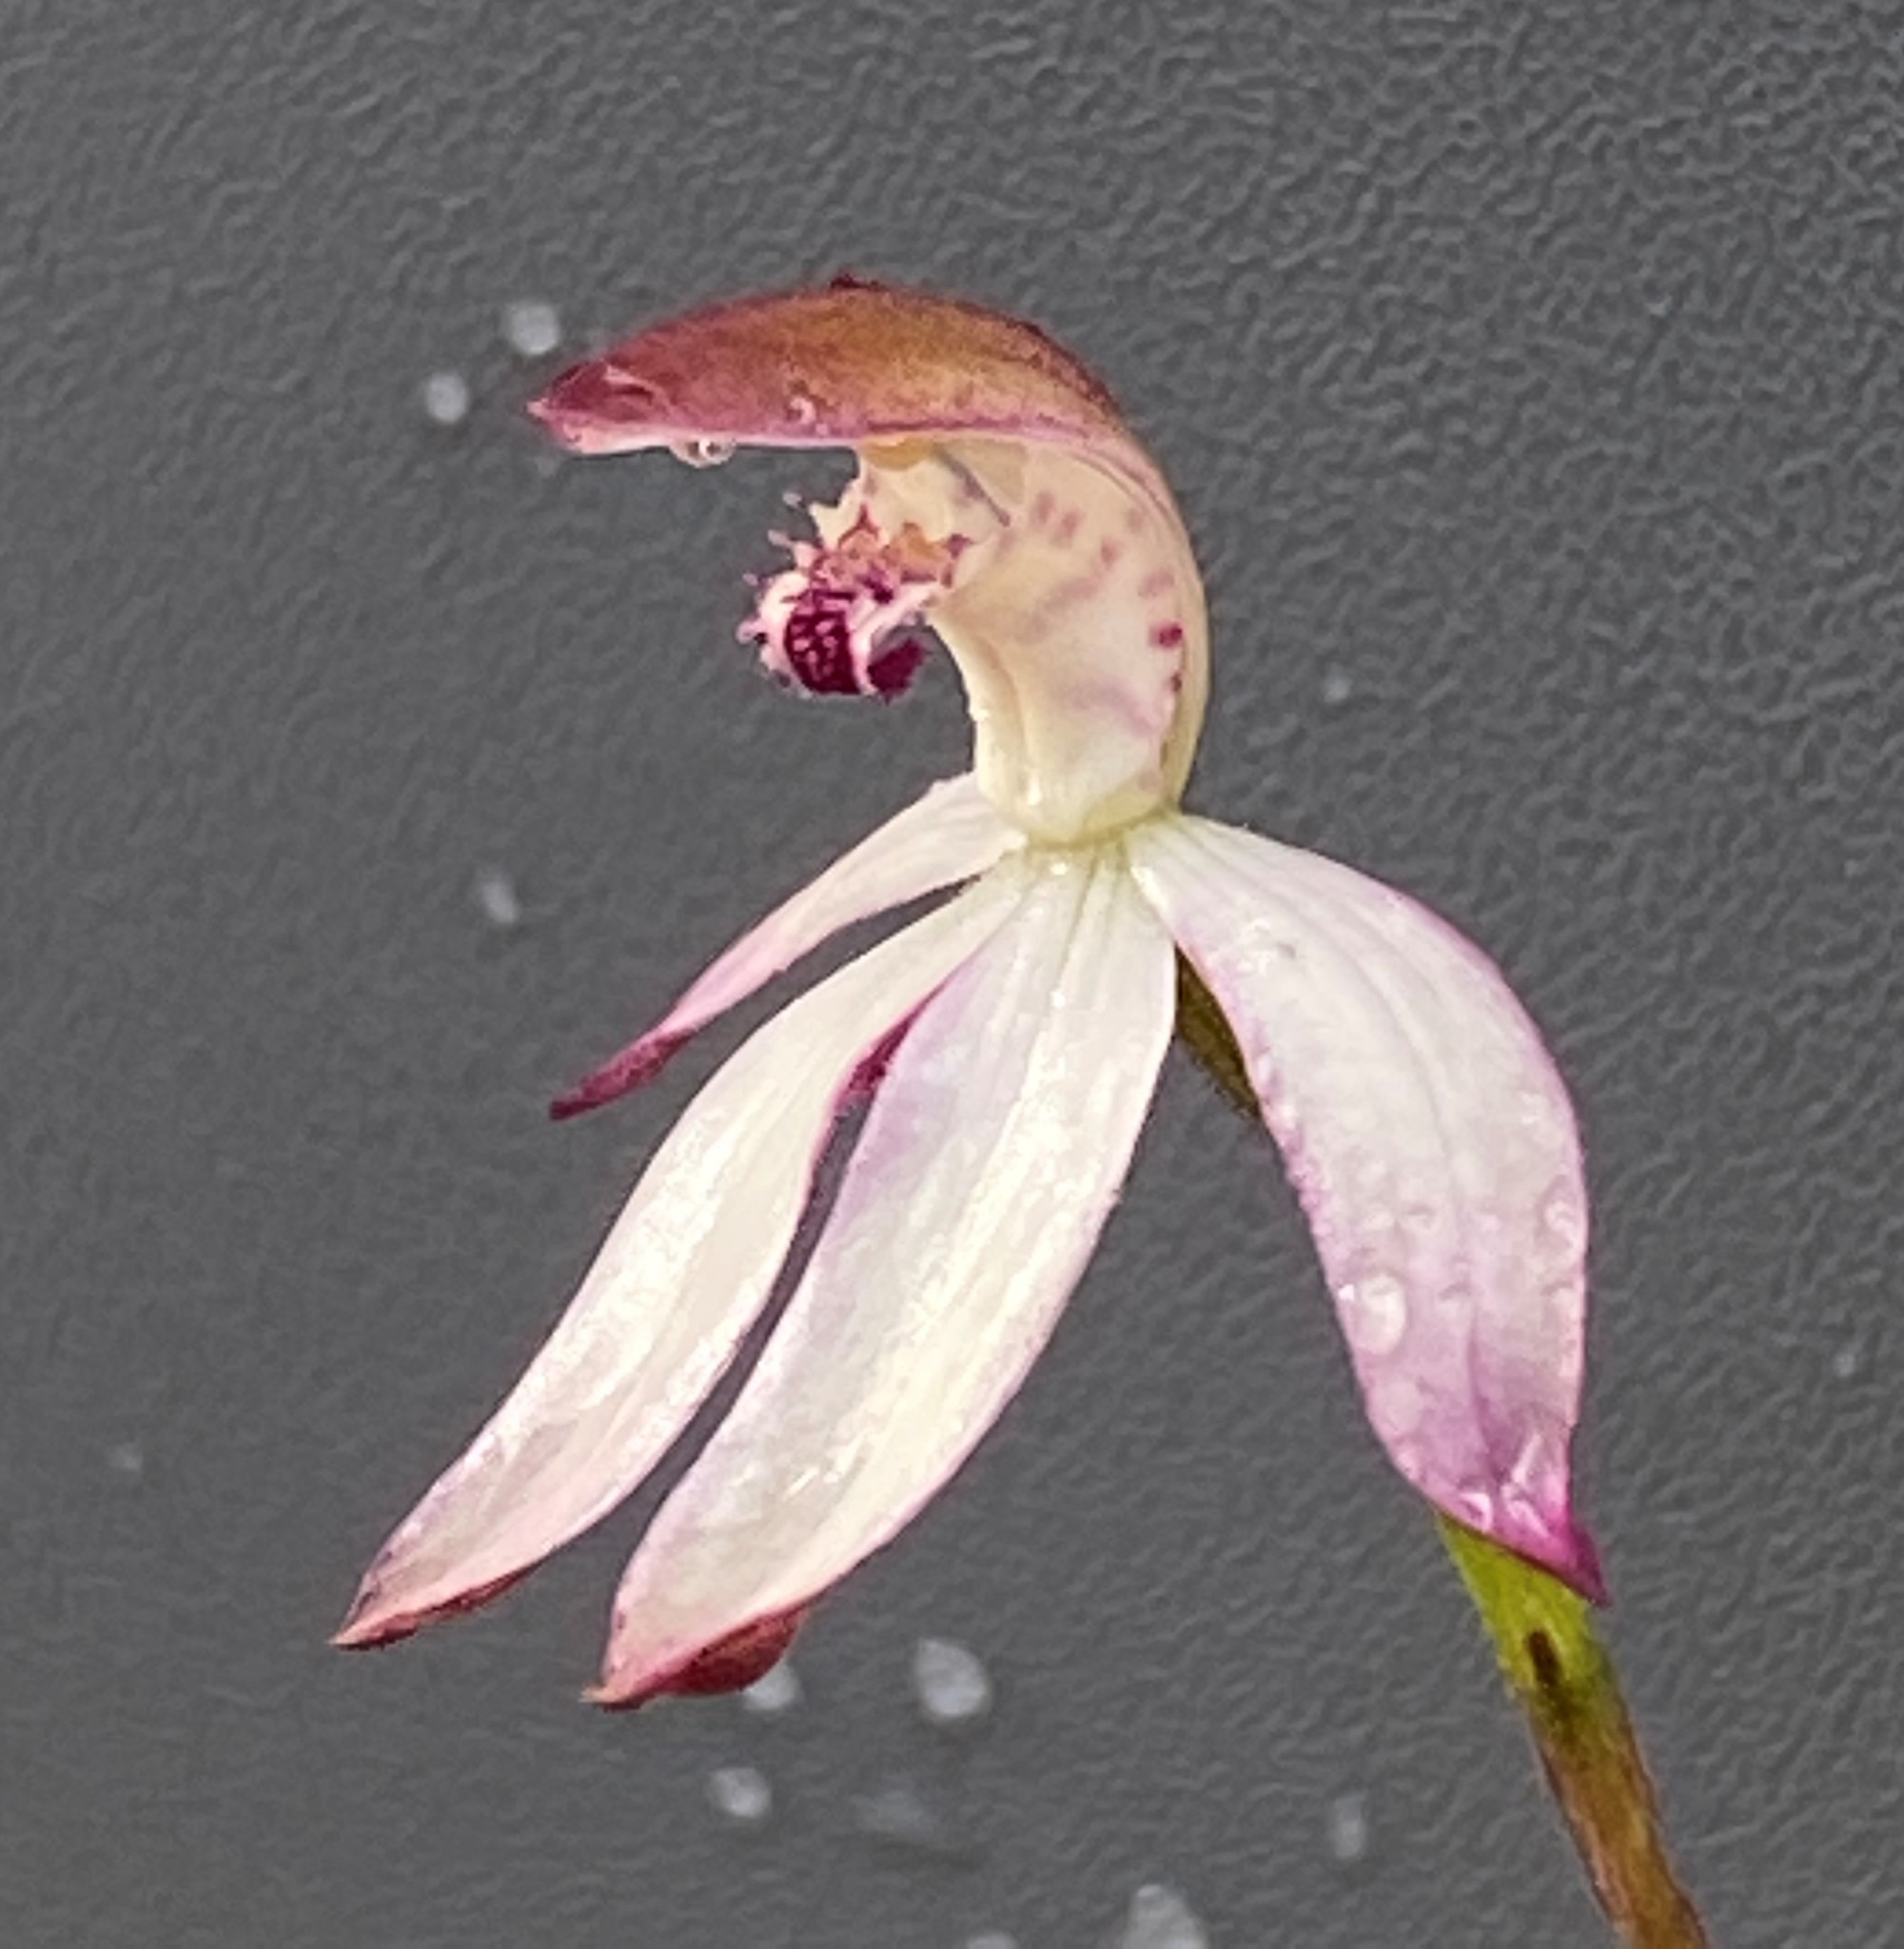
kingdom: Plantae
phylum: Tracheophyta
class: Liliopsida
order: Asparagales
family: Orchidaceae
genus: Caladenia
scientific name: Caladenia moschata
